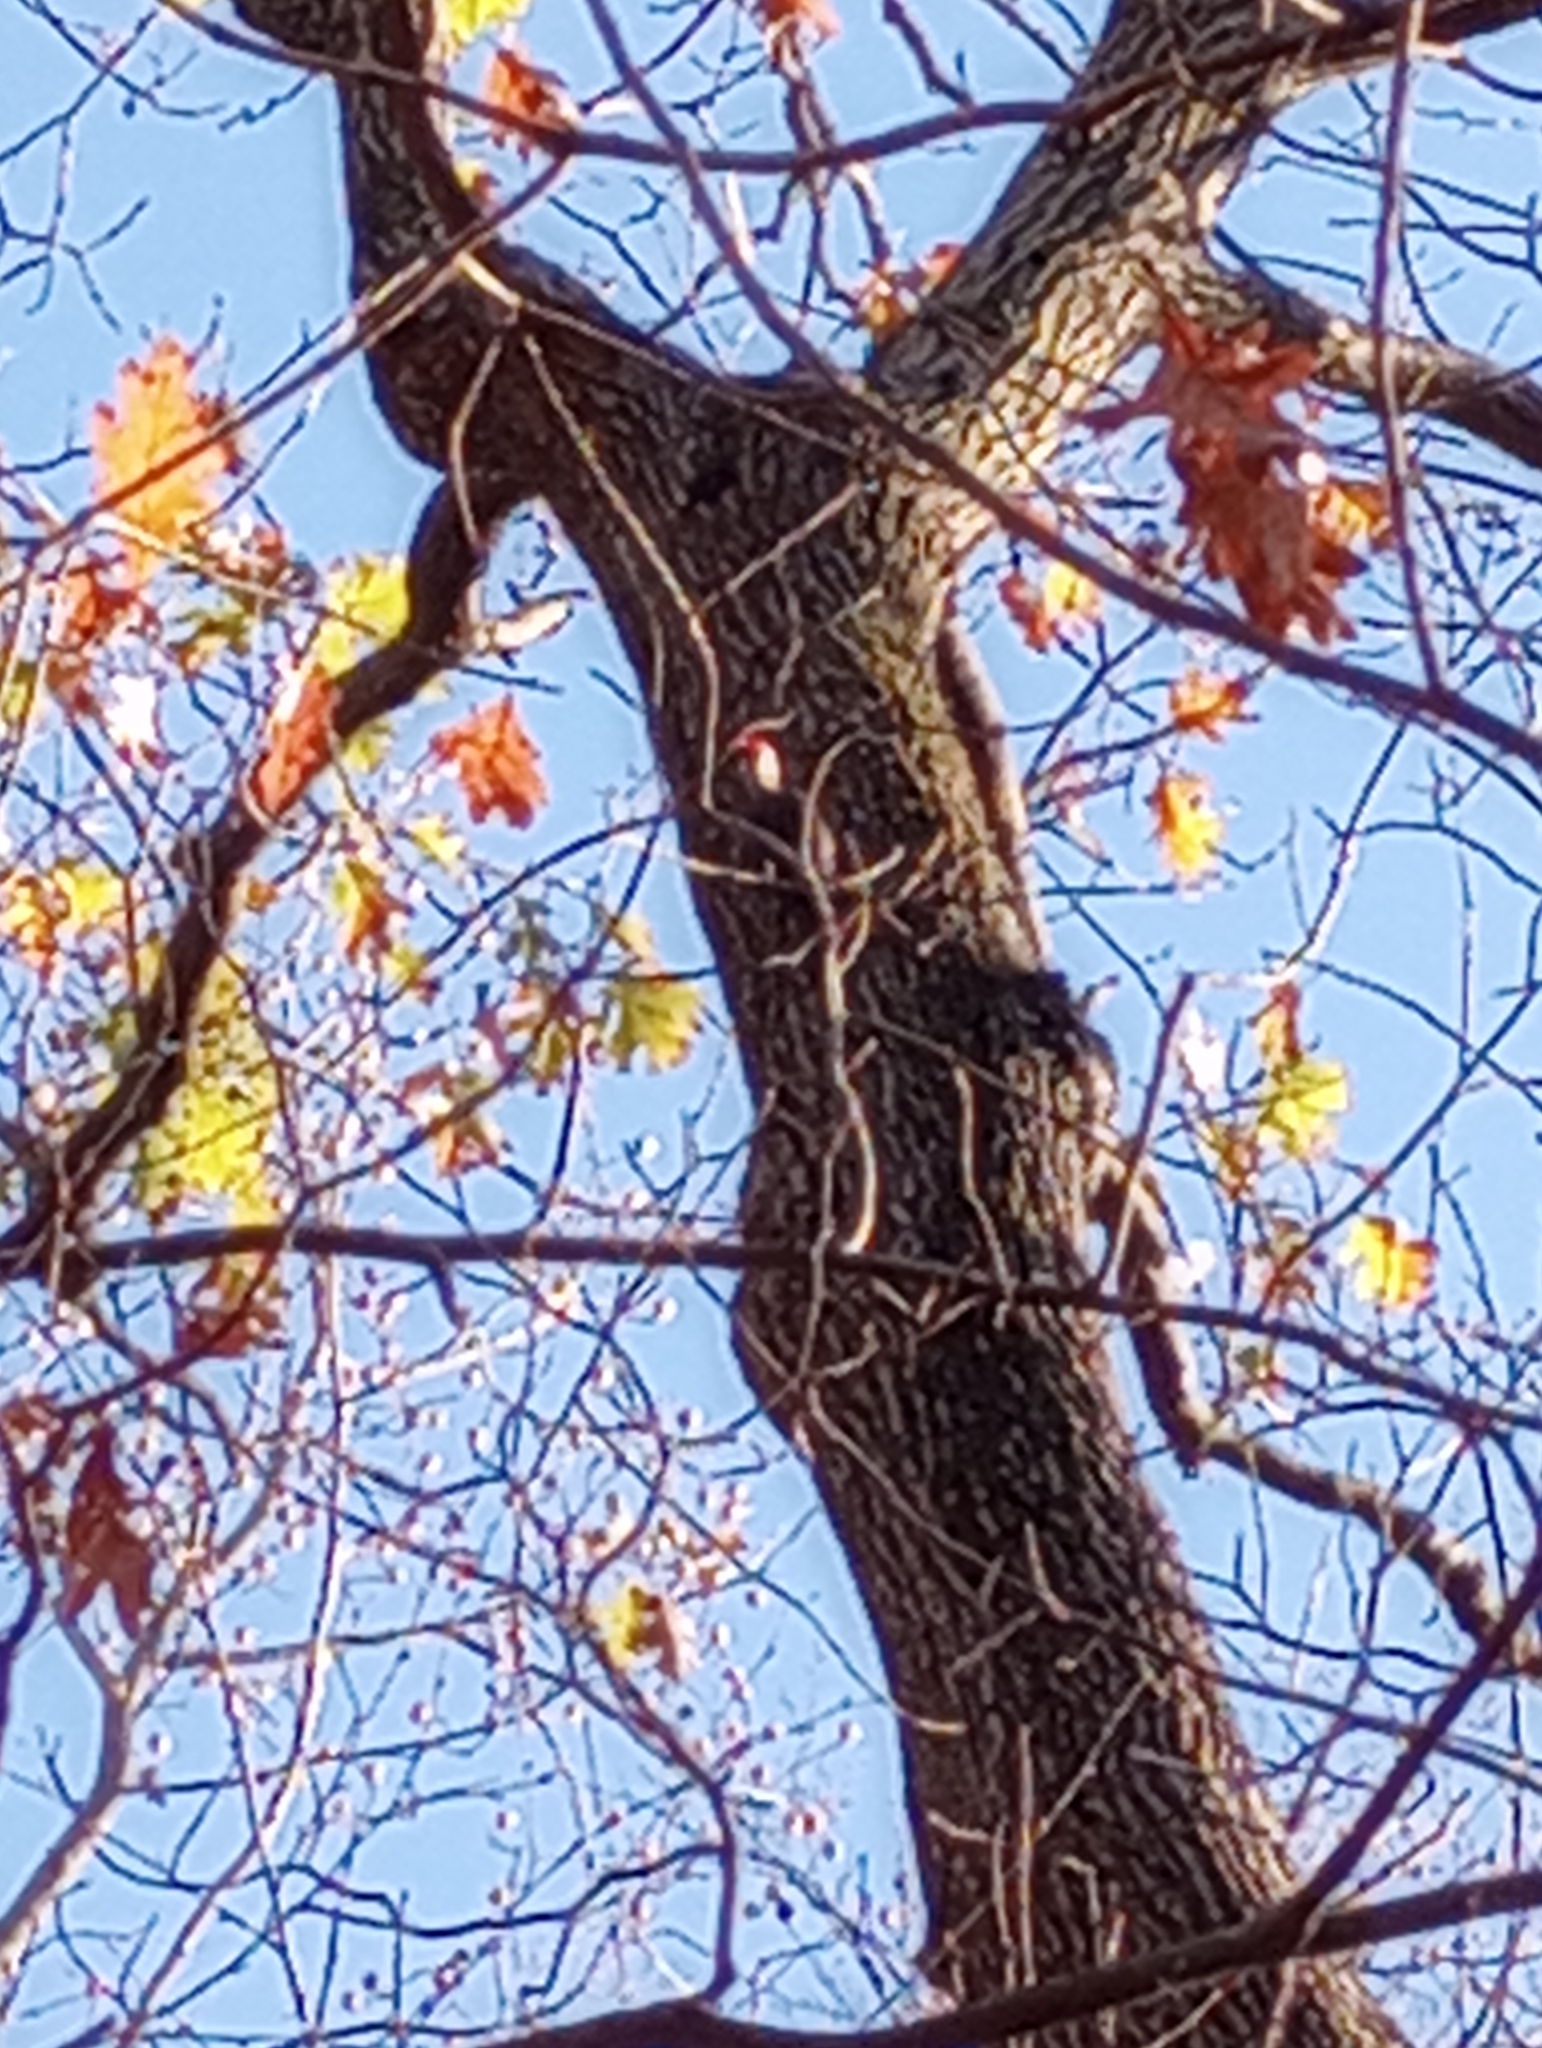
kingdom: Animalia
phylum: Chordata
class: Aves
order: Piciformes
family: Picidae
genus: Dryocopus
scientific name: Dryocopus pileatus
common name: Pileated woodpecker
